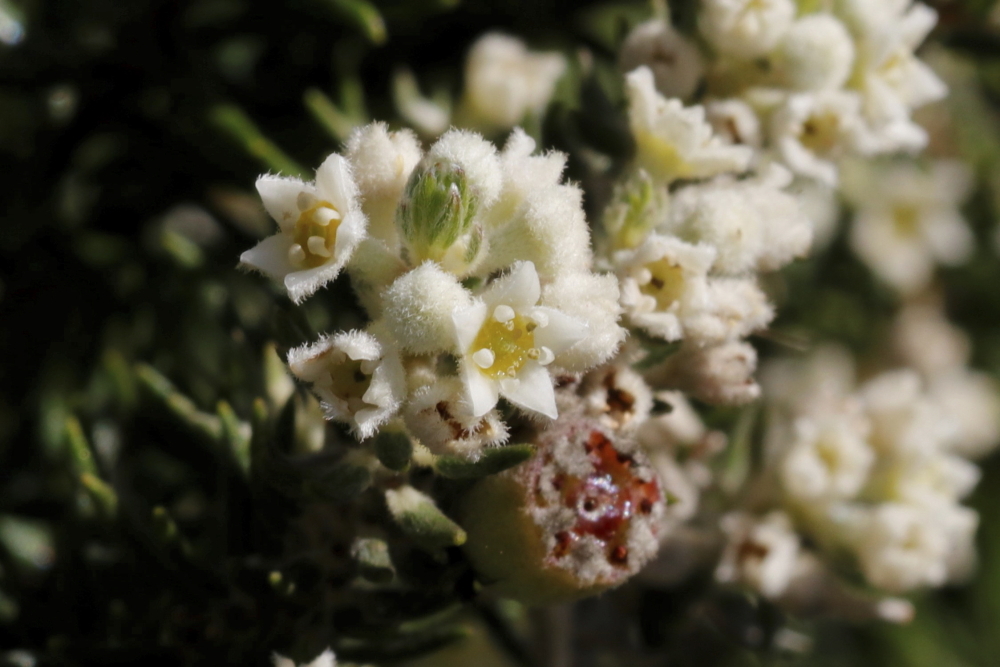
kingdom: Plantae
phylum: Tracheophyta
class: Magnoliopsida
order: Rosales
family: Rhamnaceae
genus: Phylica
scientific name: Phylica axillaris
